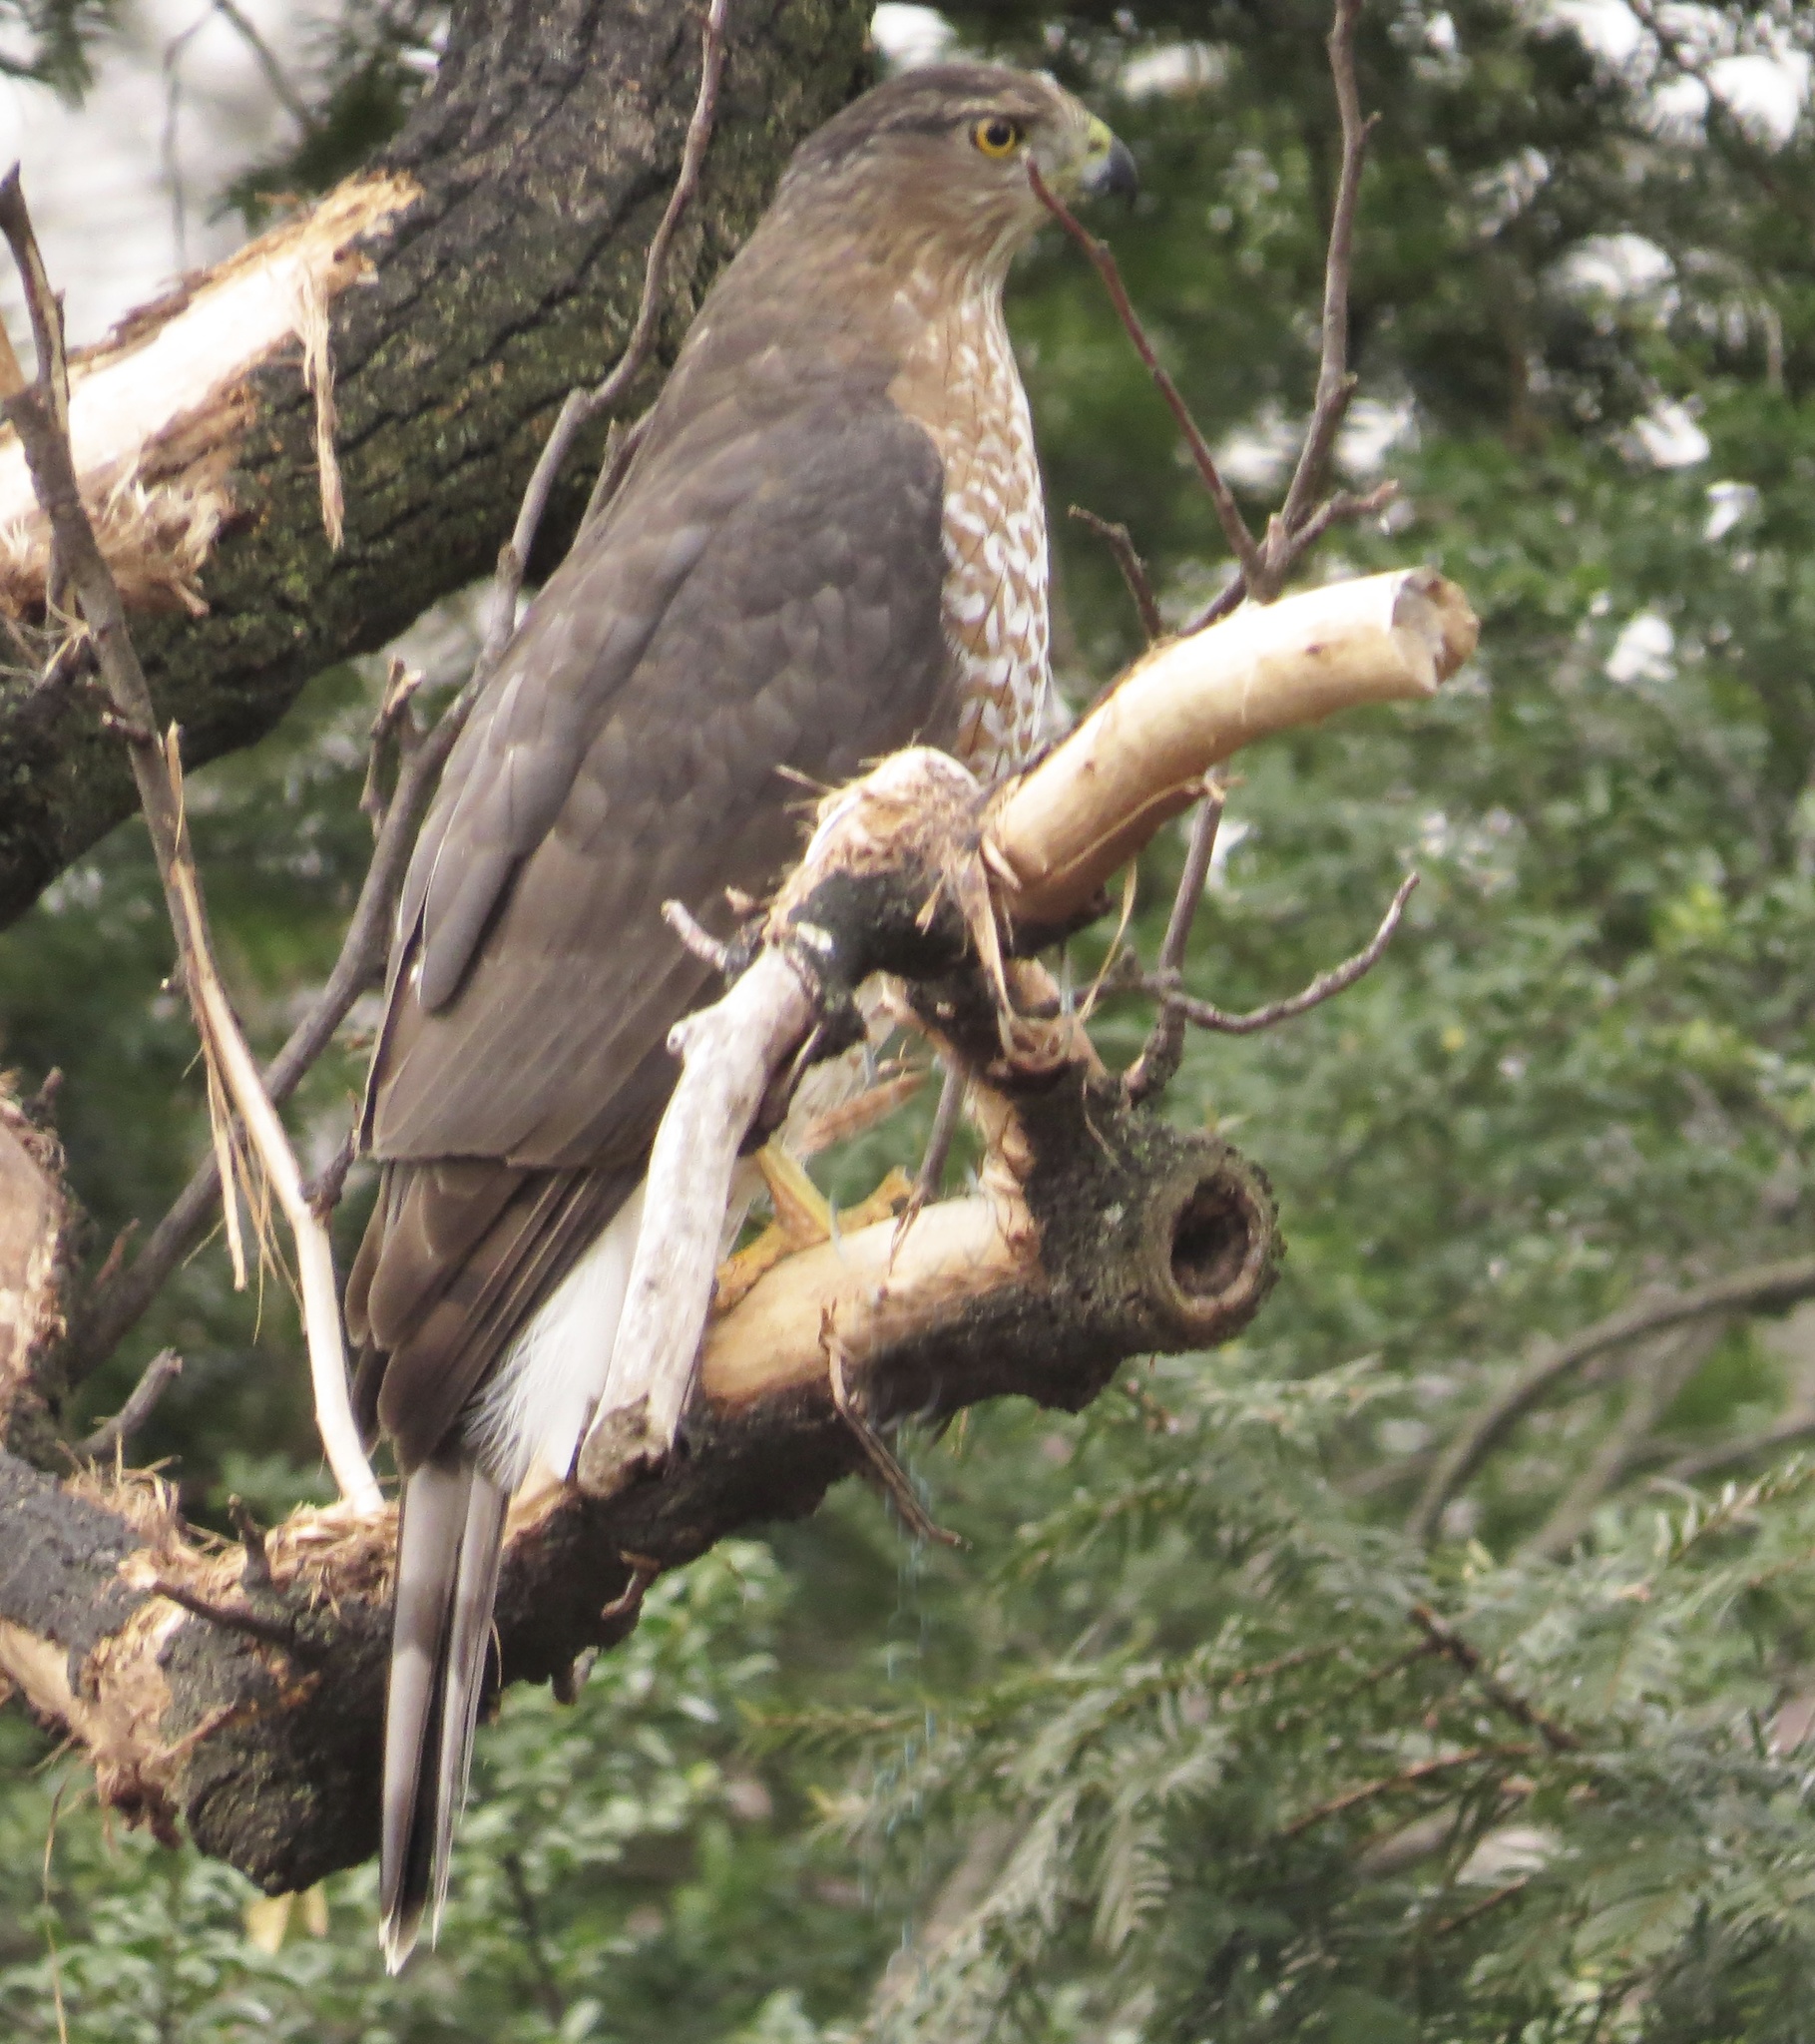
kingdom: Animalia
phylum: Chordata
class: Aves
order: Accipitriformes
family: Accipitridae
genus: Accipiter
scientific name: Accipiter cooperii
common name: Cooper's hawk
